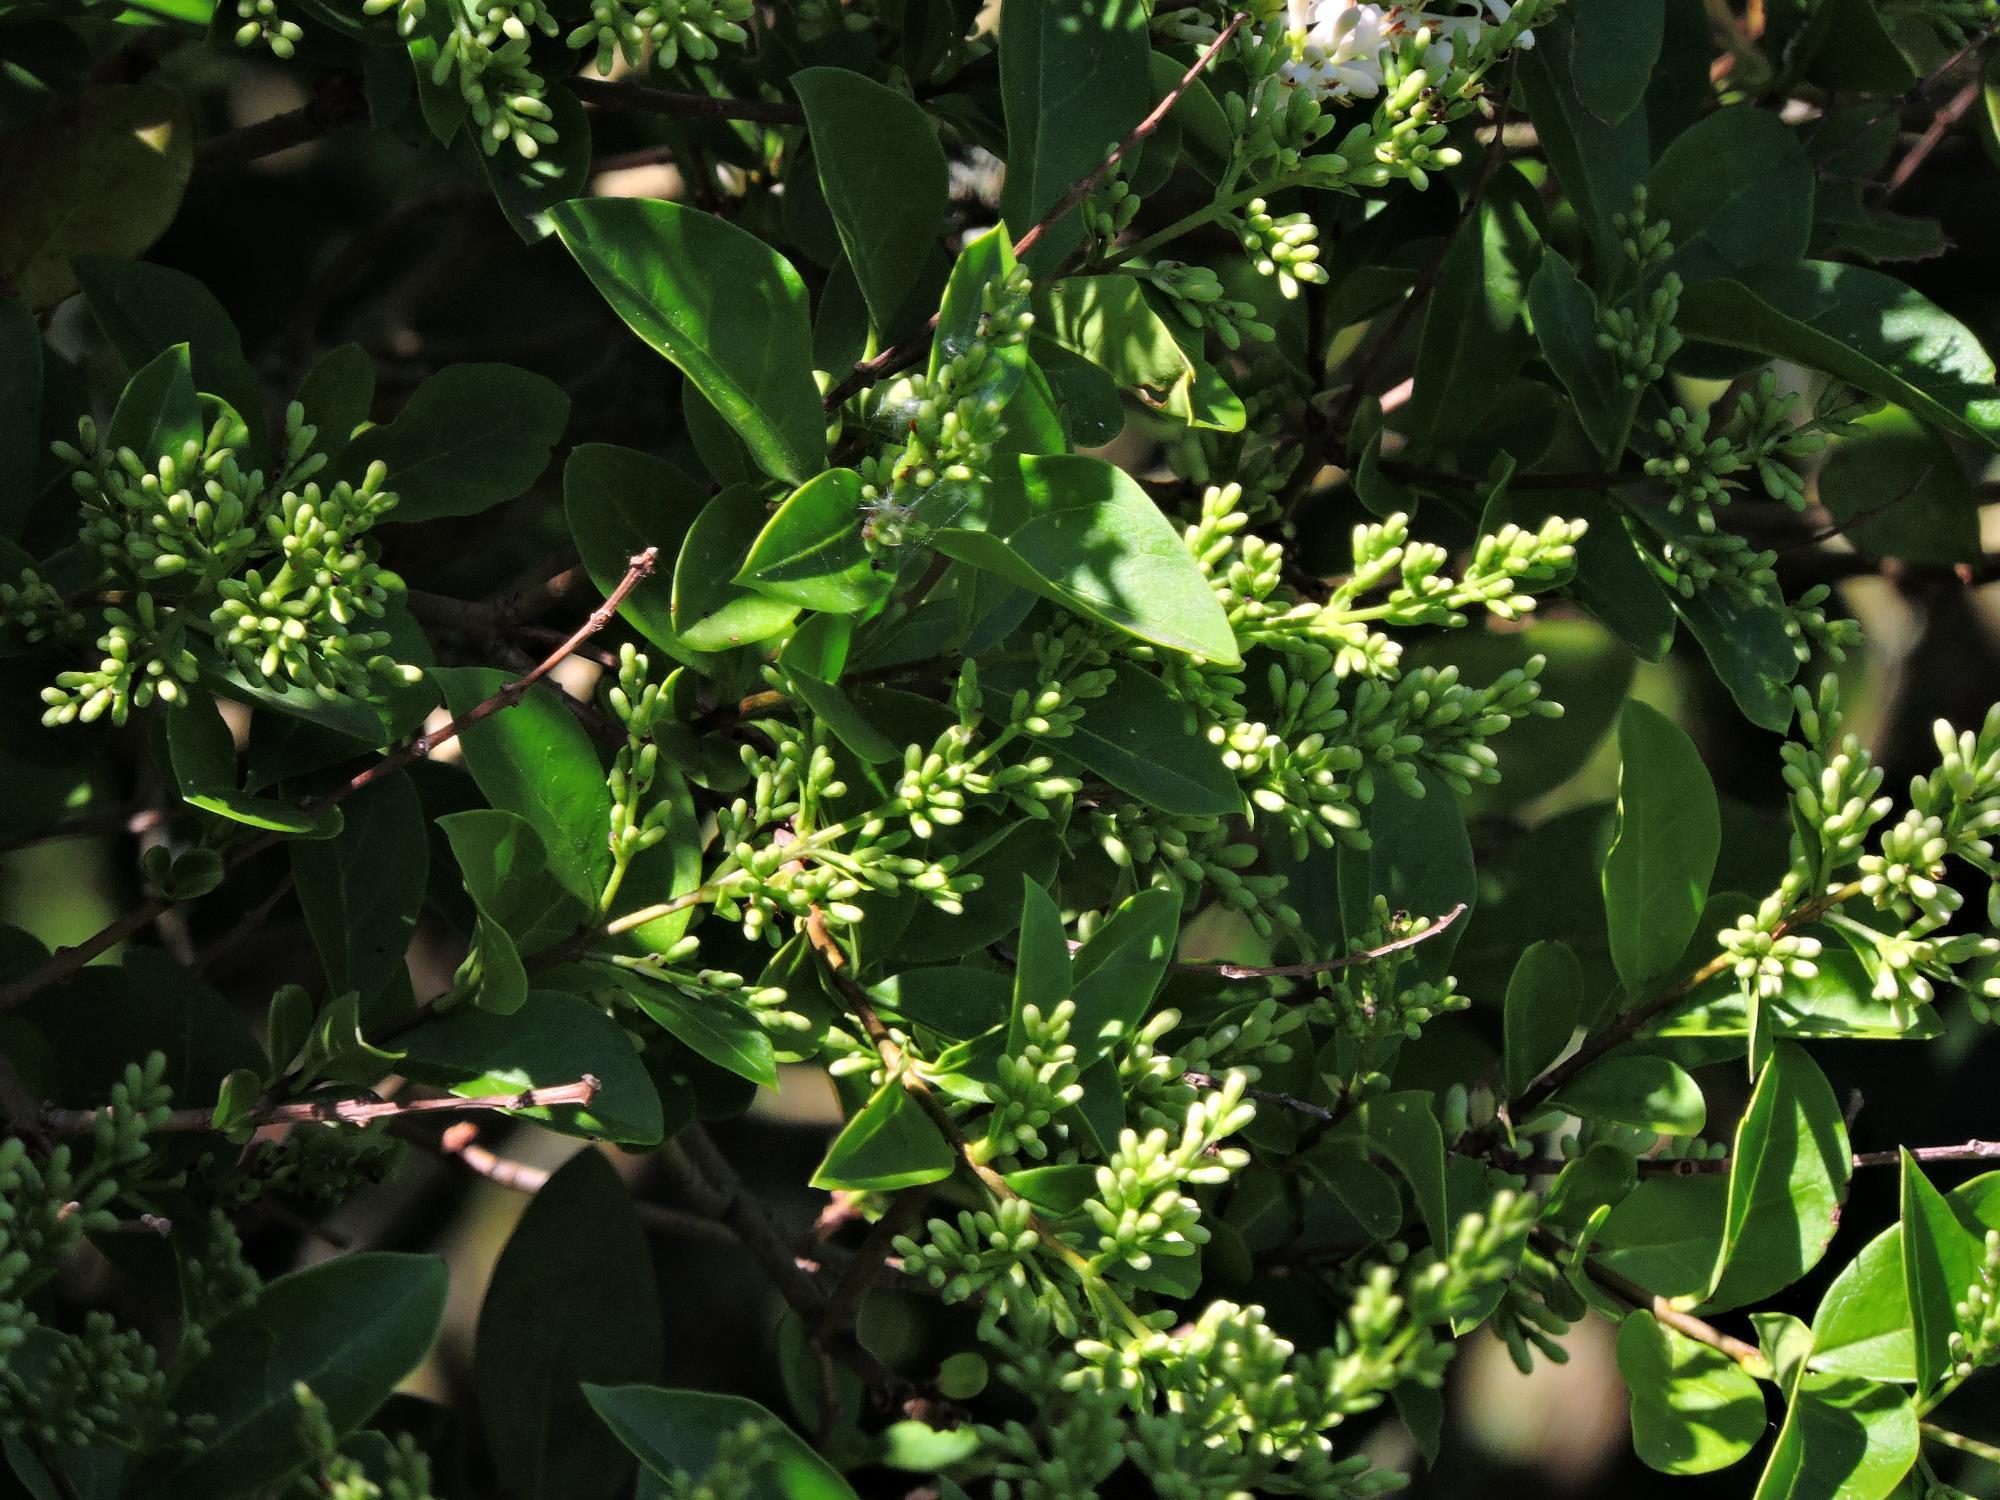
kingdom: Plantae
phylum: Tracheophyta
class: Magnoliopsida
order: Lamiales
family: Oleaceae
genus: Ligustrum
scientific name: Ligustrum ovalifolium
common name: California privet
